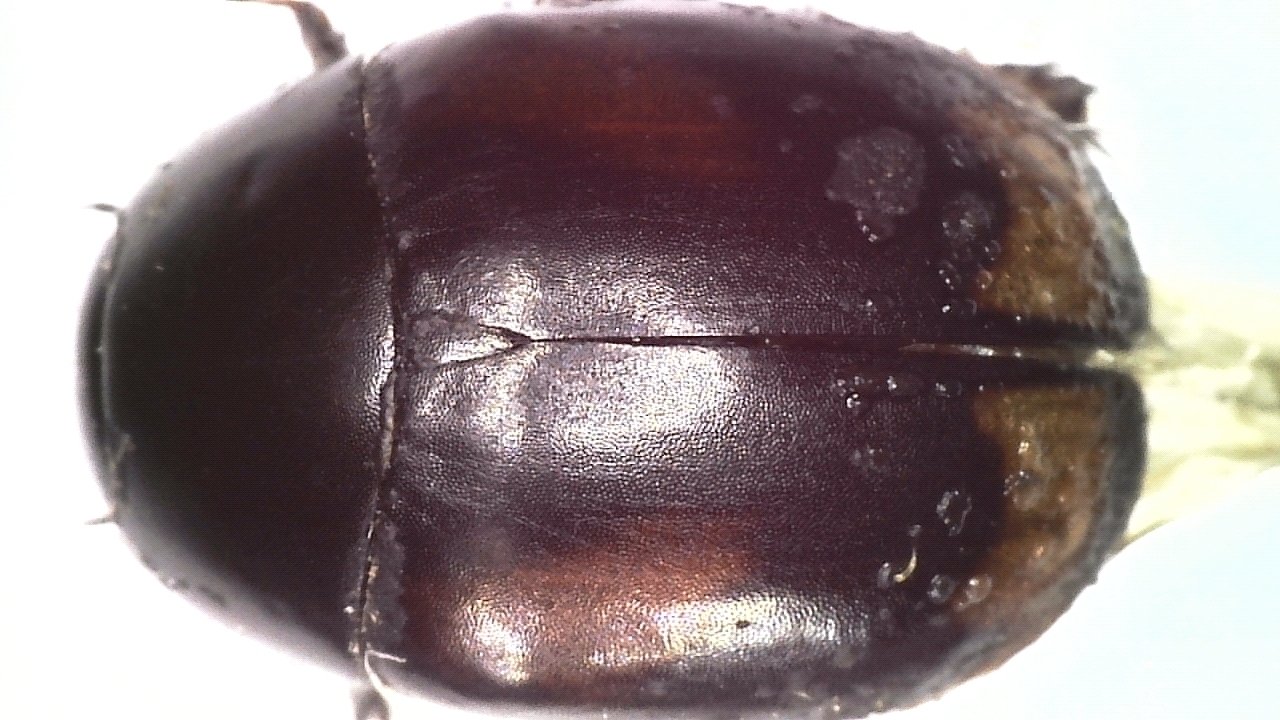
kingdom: Animalia
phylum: Arthropoda
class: Insecta
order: Coleoptera
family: Hydrophilidae
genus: Sphaeridium
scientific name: Sphaeridium lunatum
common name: Water scavenger beetle
